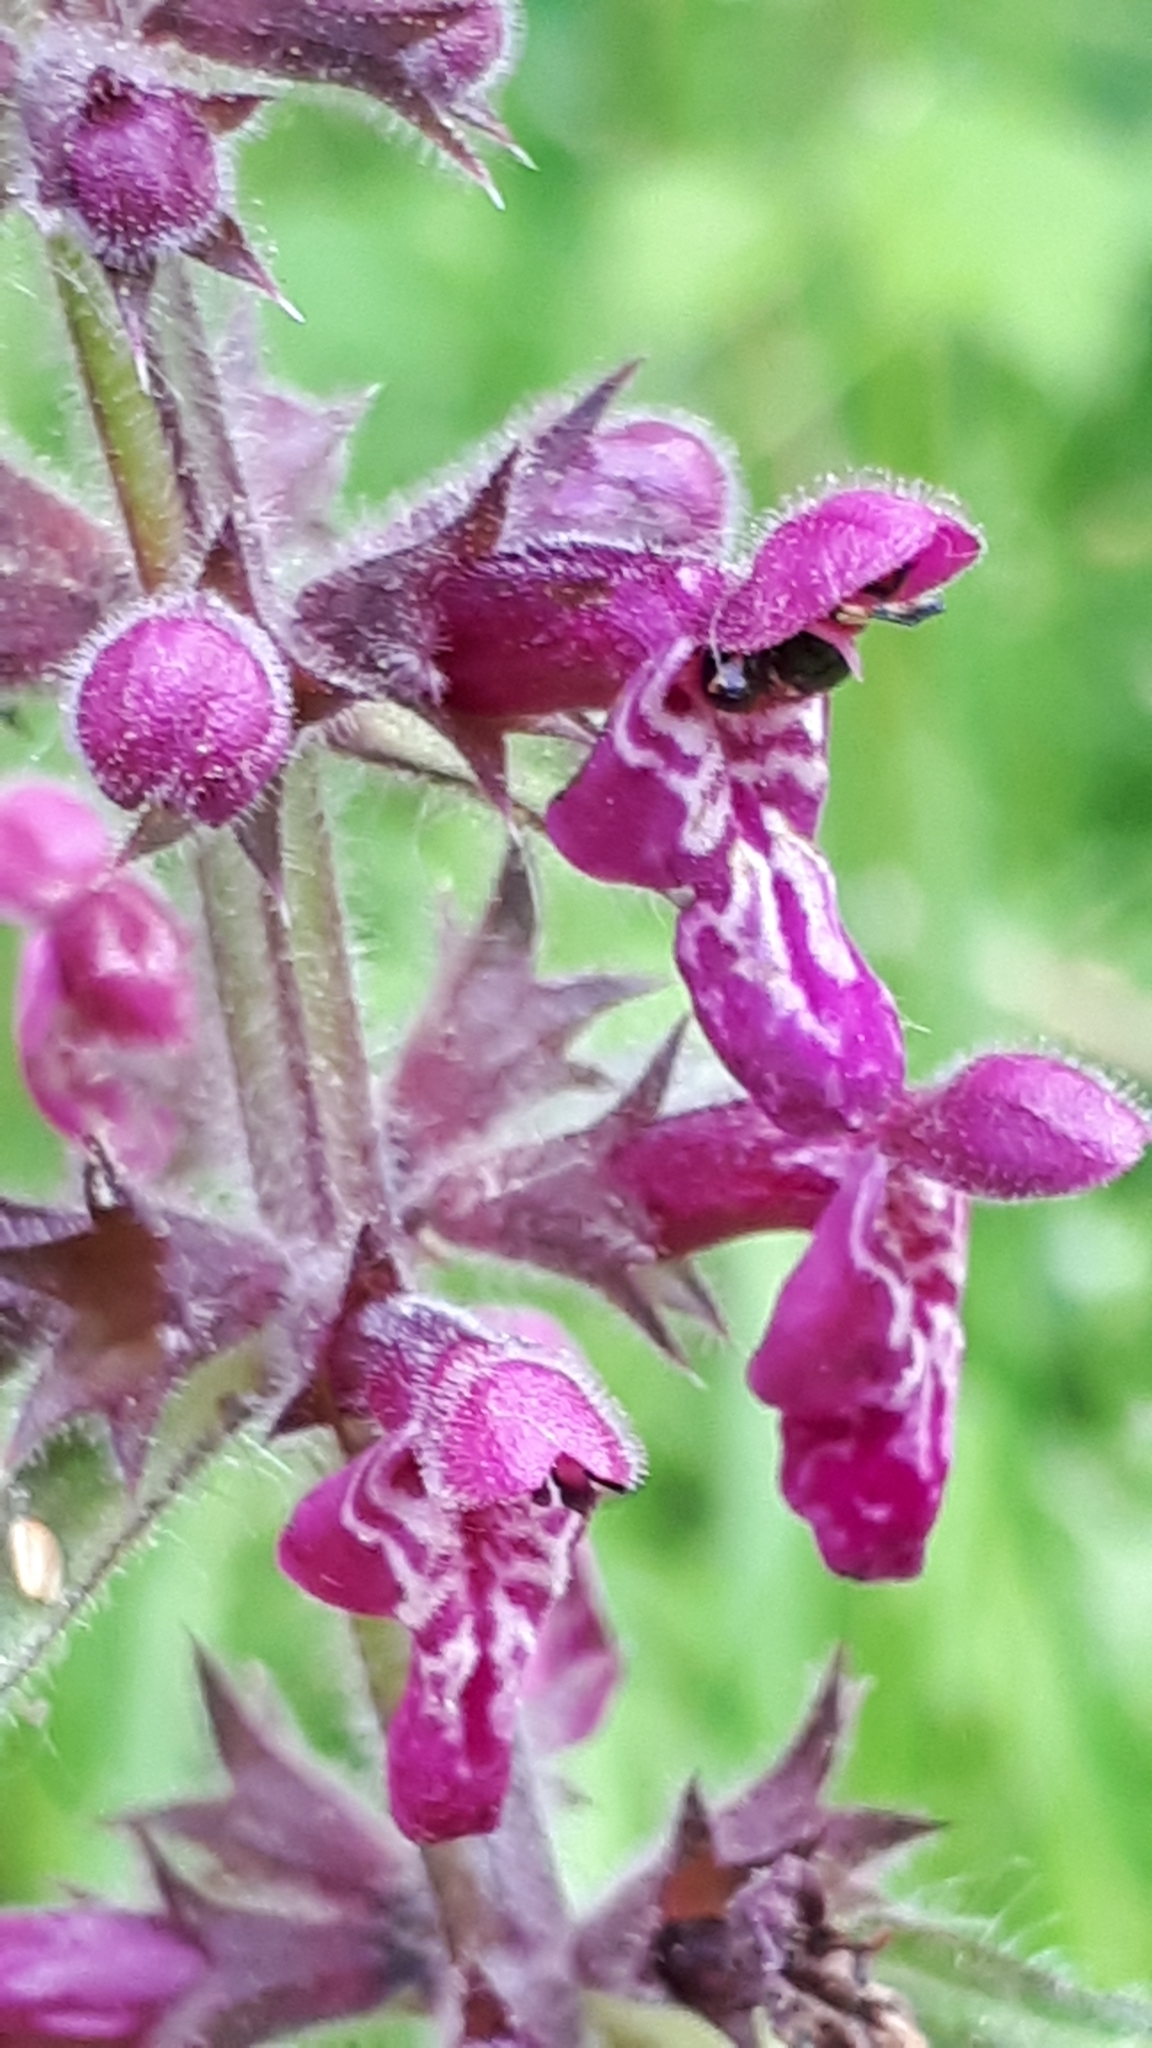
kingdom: Plantae
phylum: Tracheophyta
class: Magnoliopsida
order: Lamiales
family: Lamiaceae
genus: Stachys
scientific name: Stachys sylvatica
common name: Hedge woundwort
